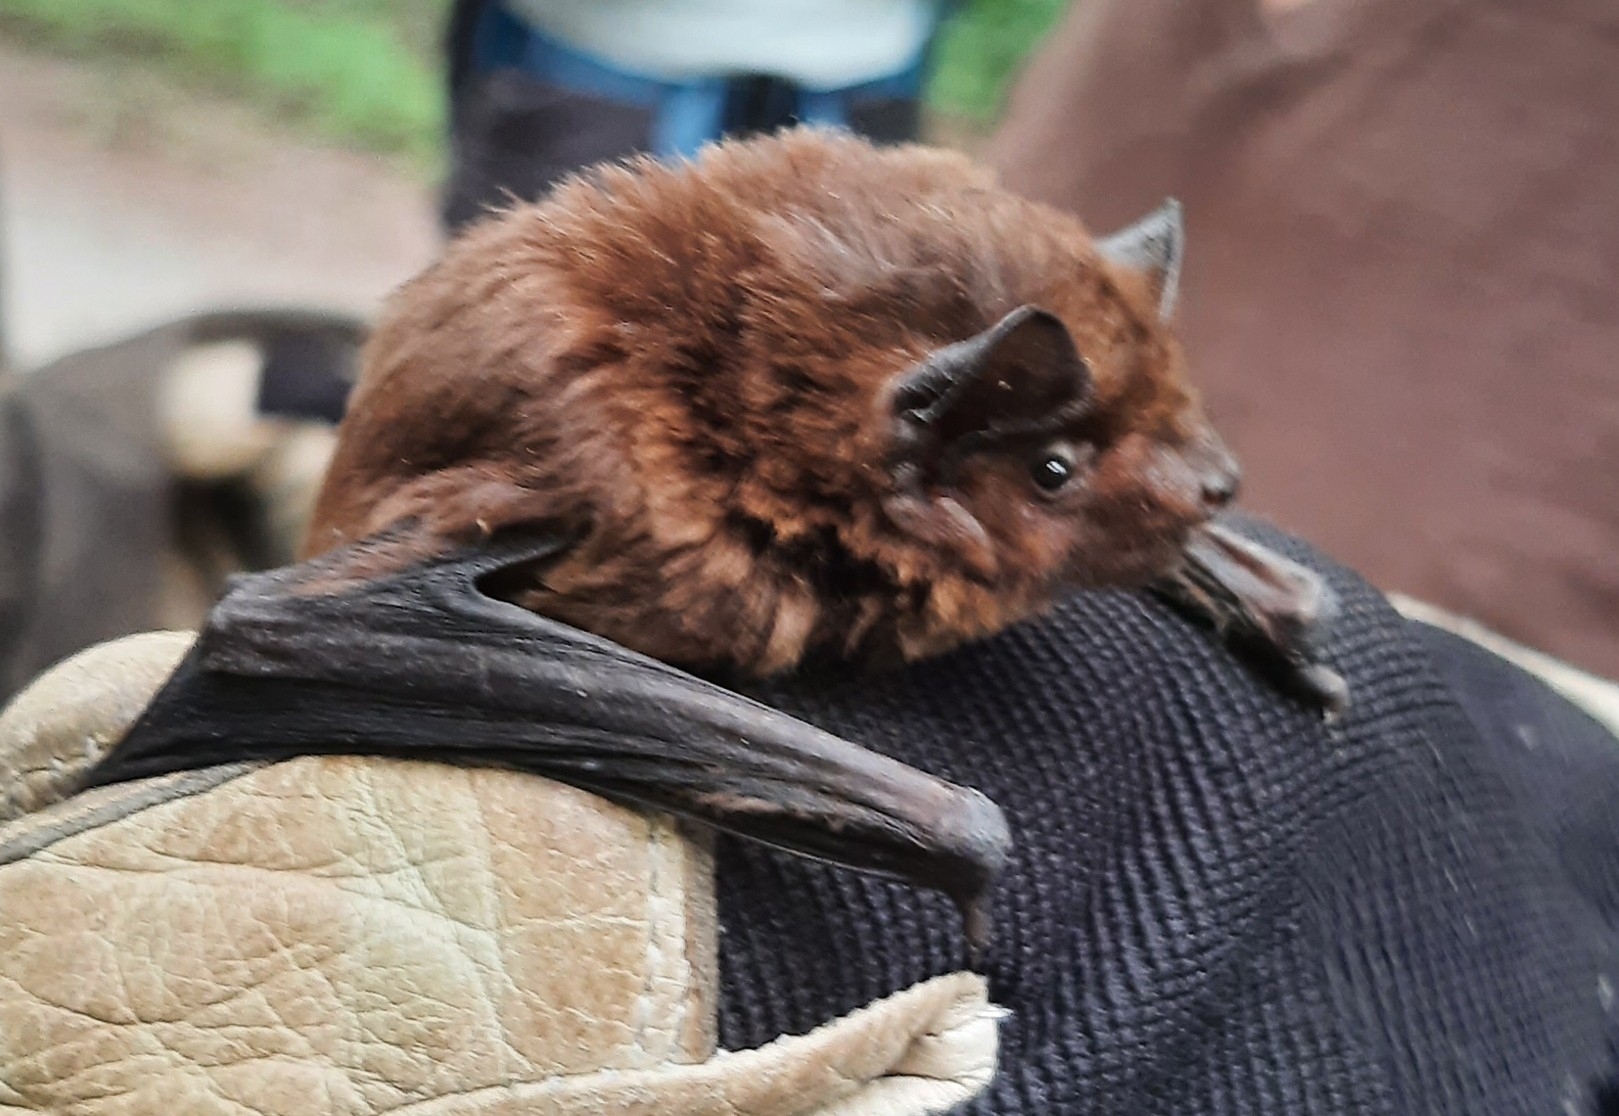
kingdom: Animalia
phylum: Chordata
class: Mammalia
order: Chiroptera
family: Vespertilionidae
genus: Nyctalus
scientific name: Nyctalus leisleri
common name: Lesser noctule
